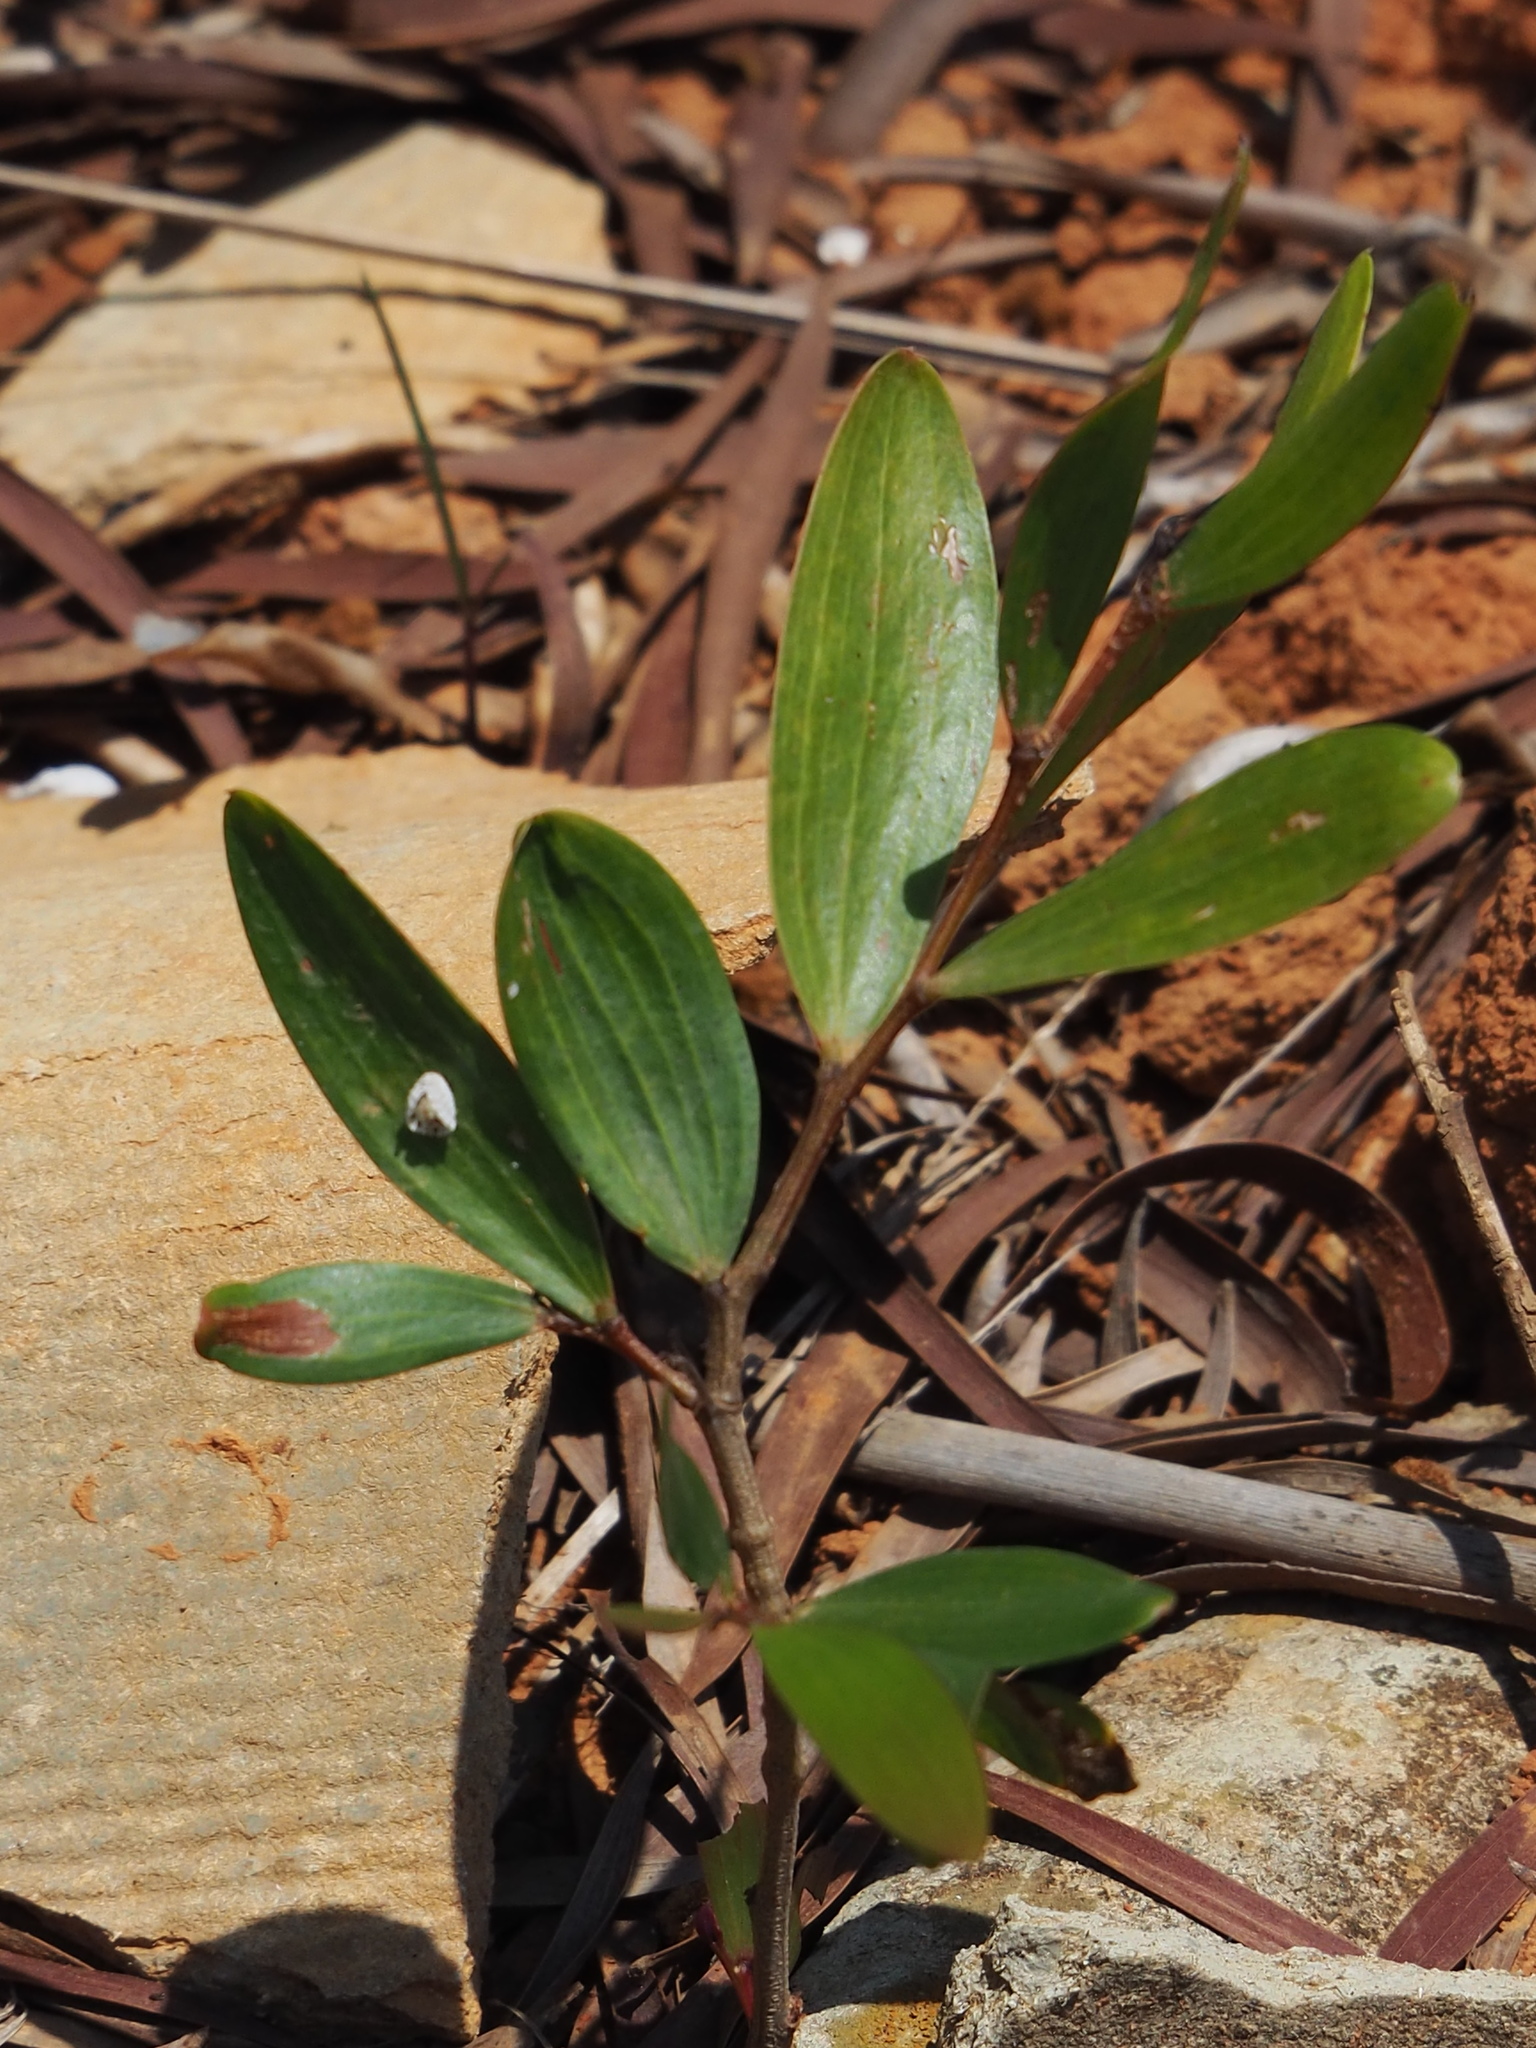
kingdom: Plantae
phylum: Tracheophyta
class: Magnoliopsida
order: Fabales
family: Fabaceae
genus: Acacia
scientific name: Acacia confusa
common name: Formosan koa
